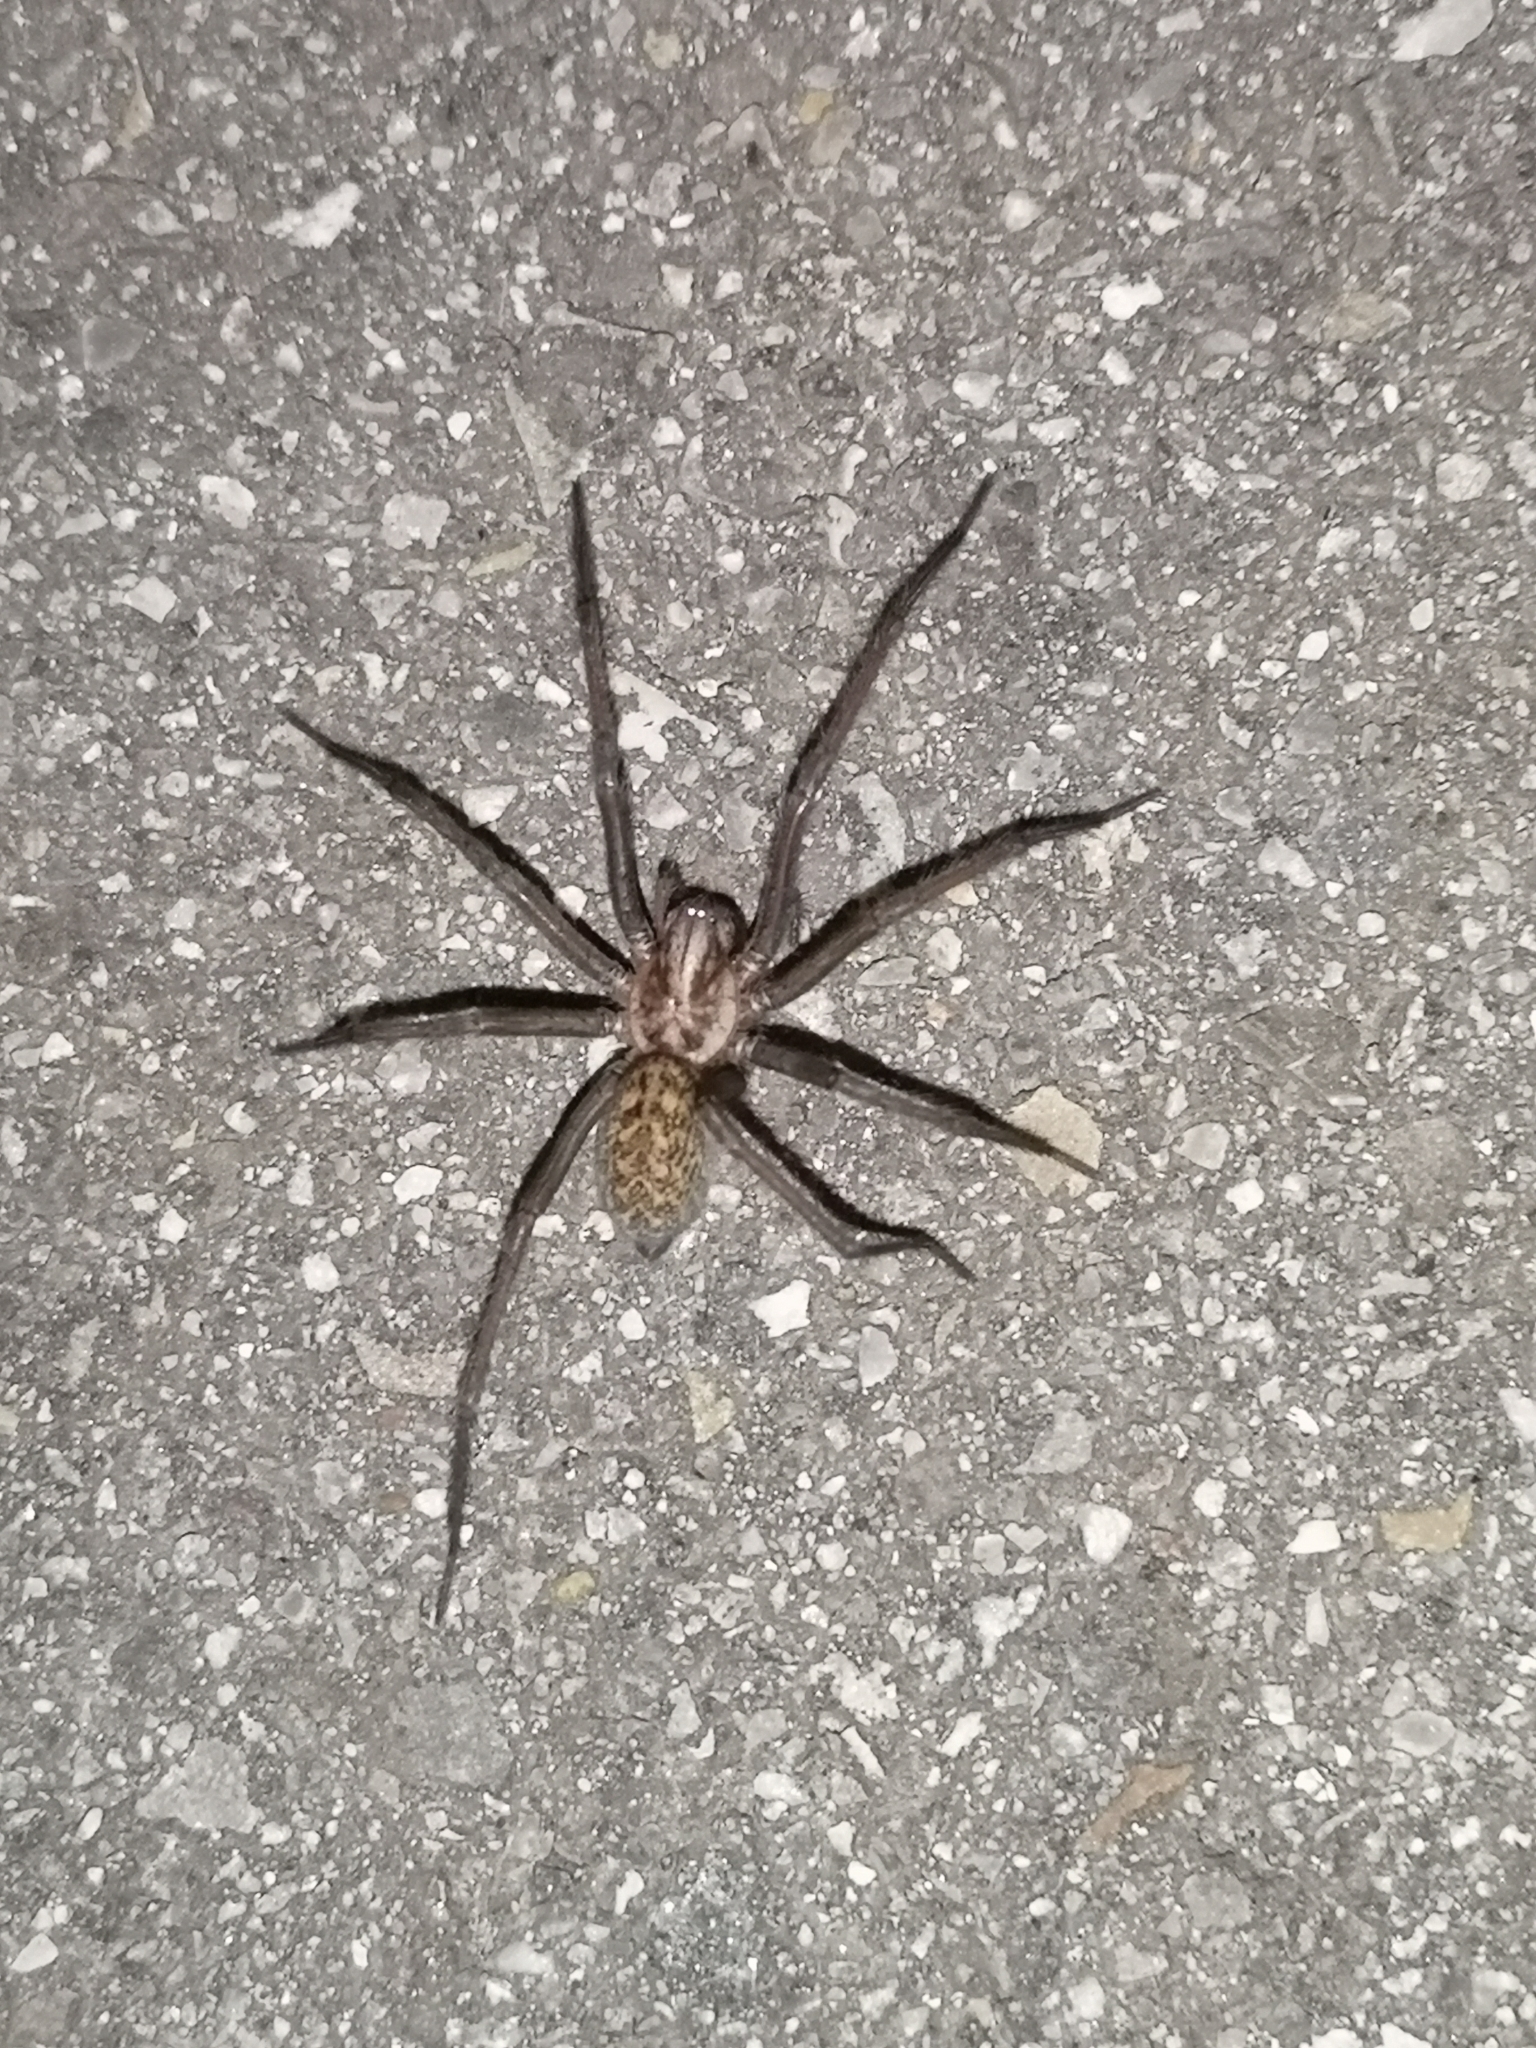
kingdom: Animalia
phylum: Arthropoda
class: Arachnida
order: Araneae
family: Agelenidae
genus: Eratigena
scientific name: Eratigena atrica
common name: Giant house spider
